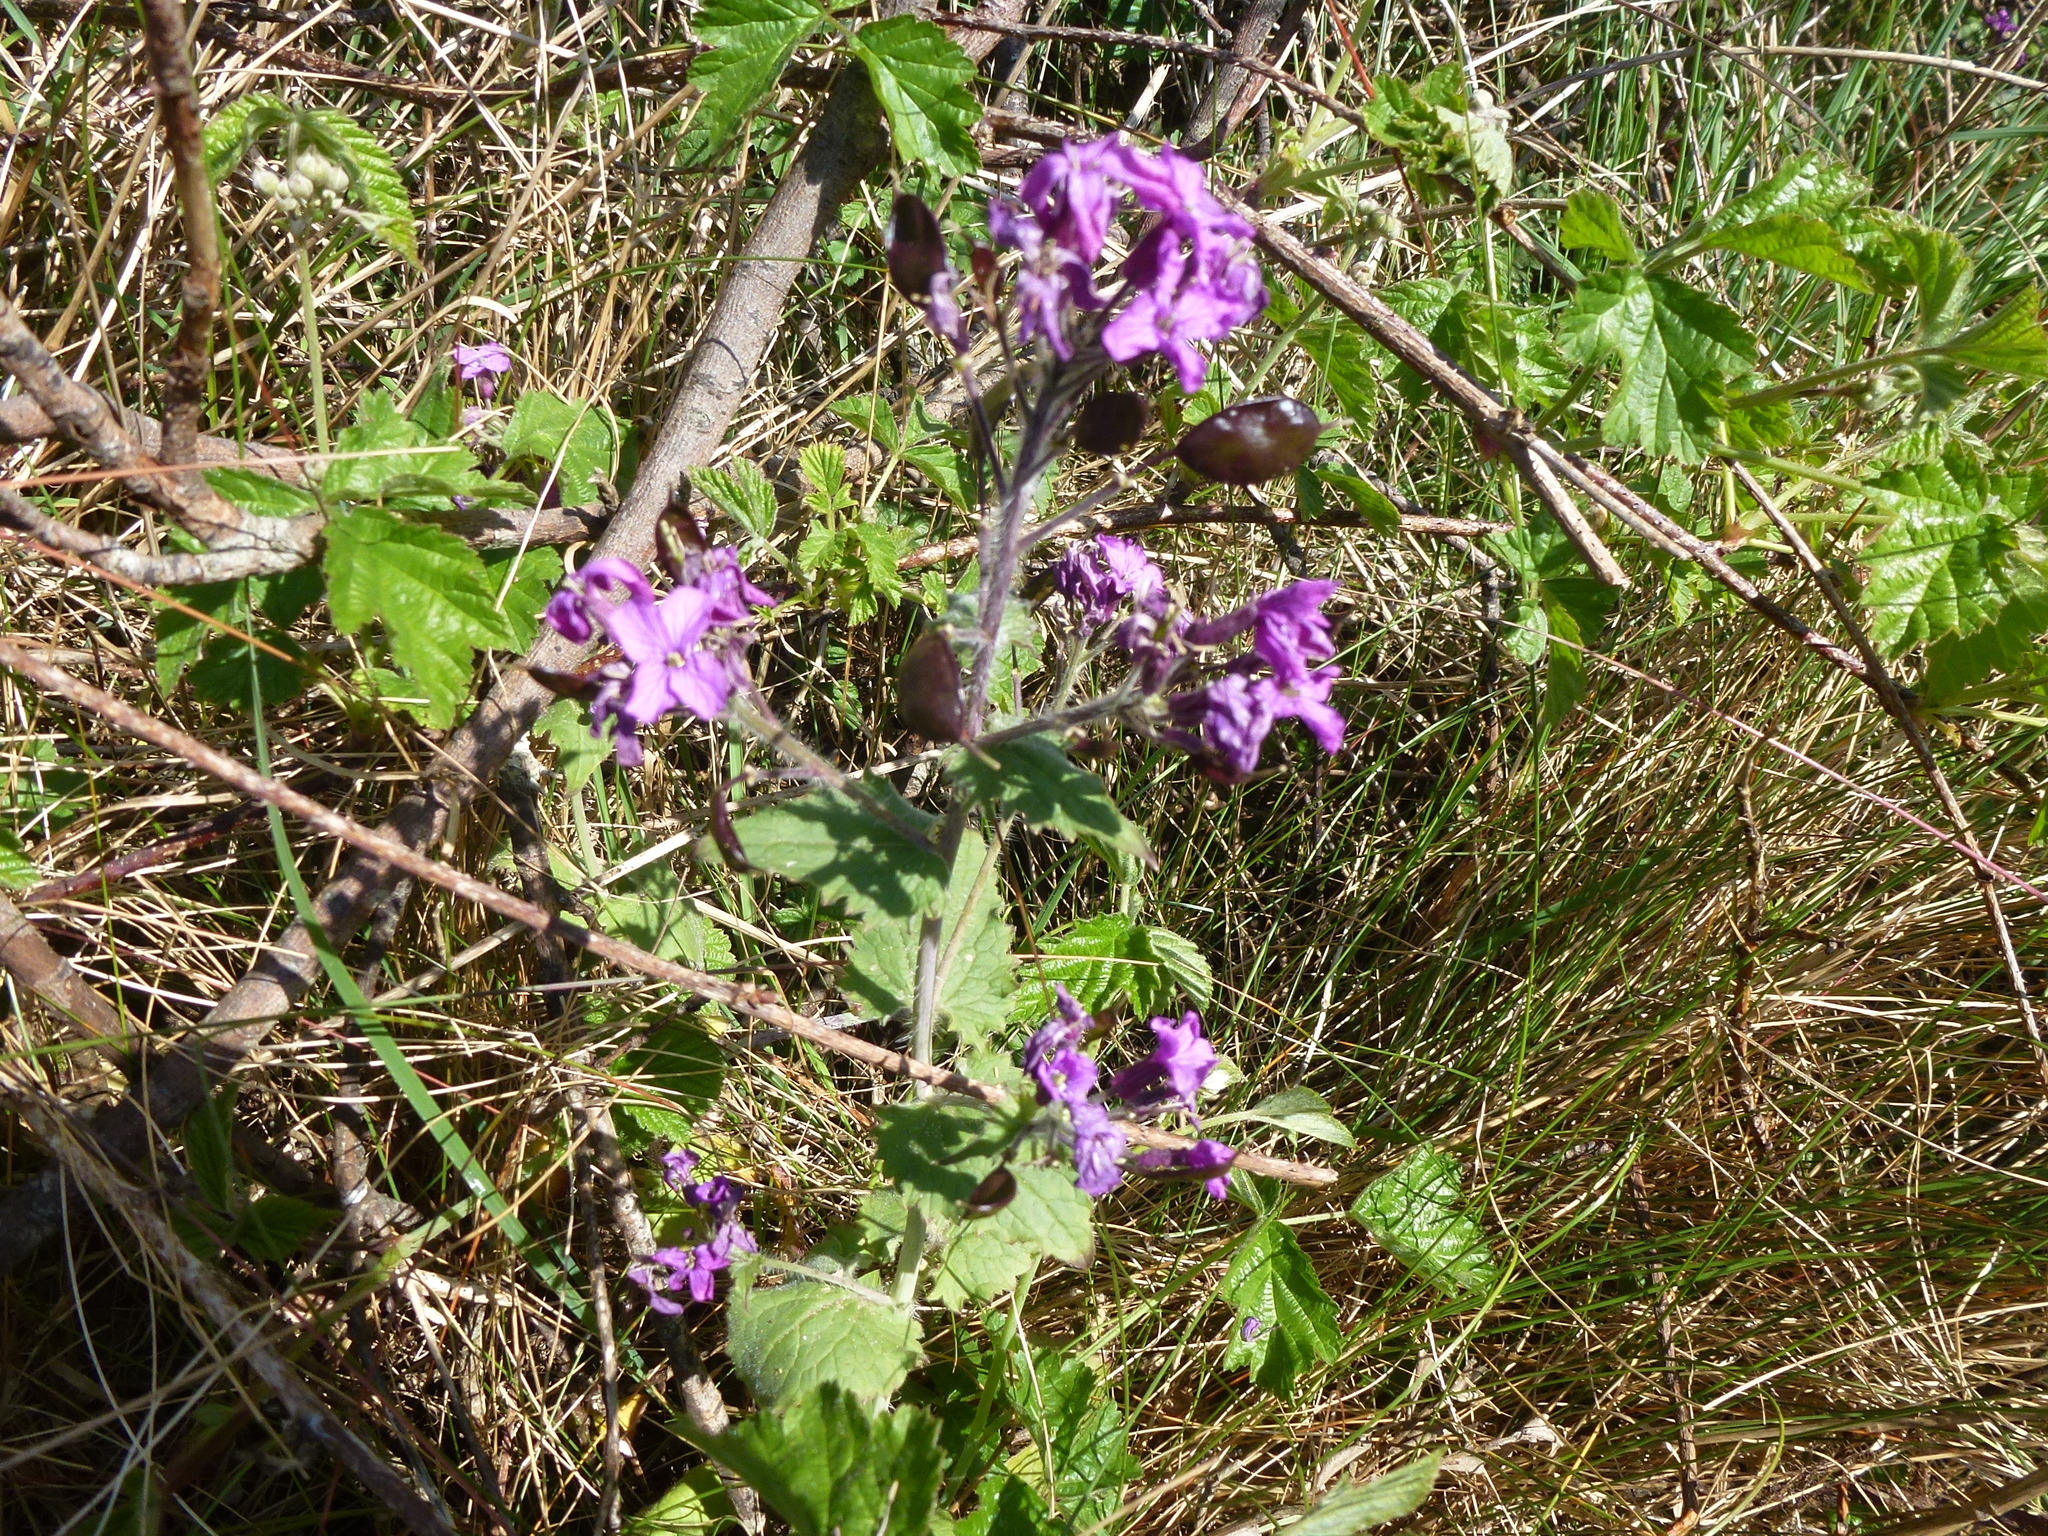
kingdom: Plantae
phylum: Tracheophyta
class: Magnoliopsida
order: Brassicales
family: Brassicaceae
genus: Lunaria
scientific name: Lunaria annua
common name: Honesty
